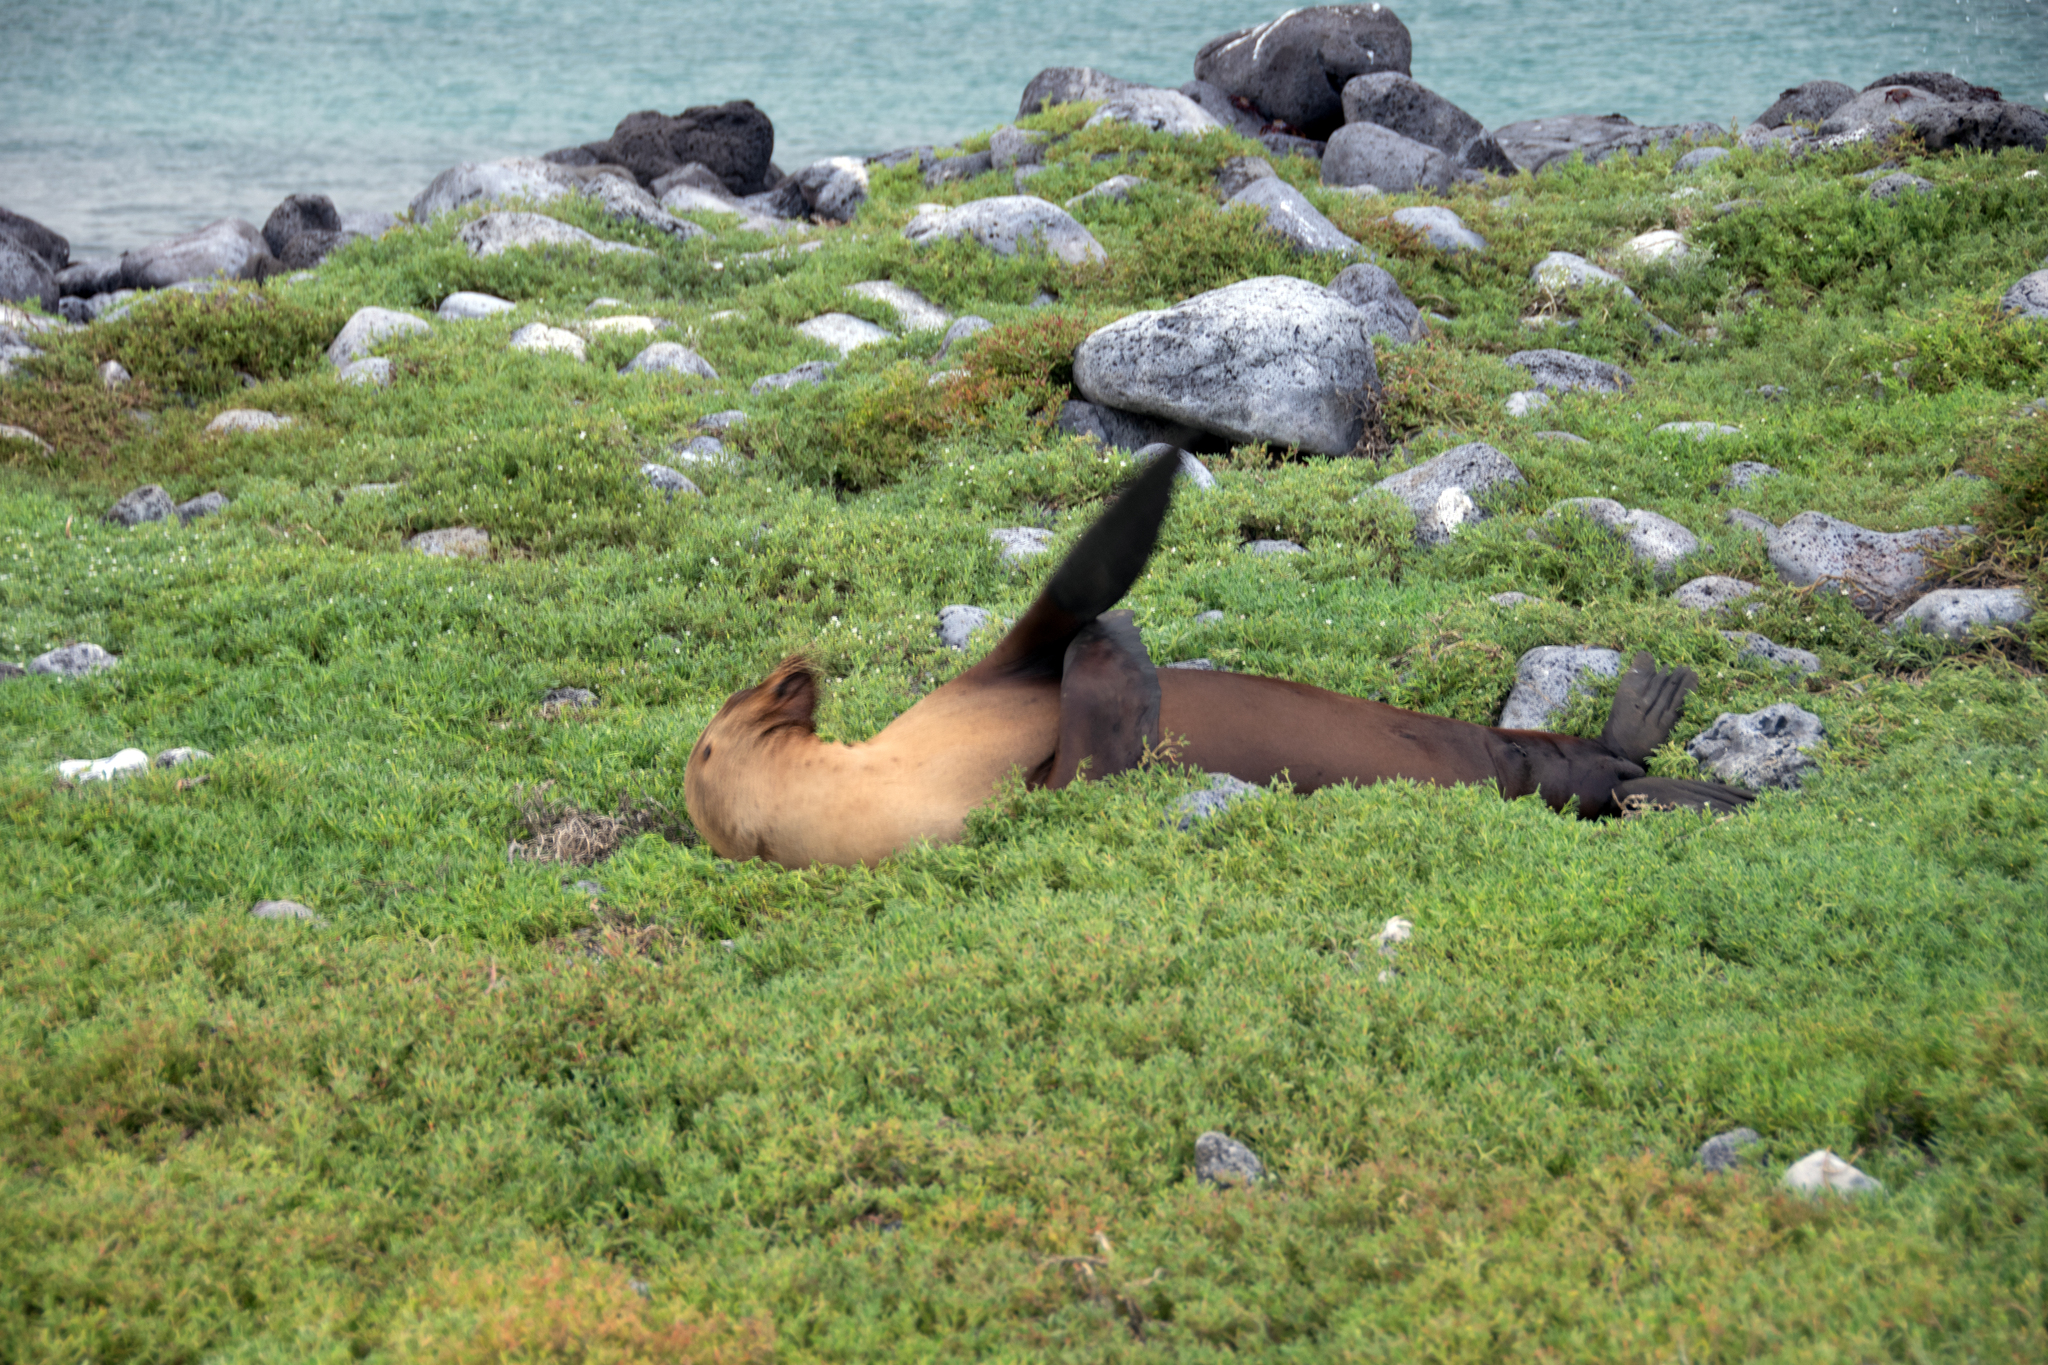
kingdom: Animalia
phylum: Chordata
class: Mammalia
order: Carnivora
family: Otariidae
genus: Zalophus
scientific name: Zalophus wollebaeki
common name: Galapagos sea lion
